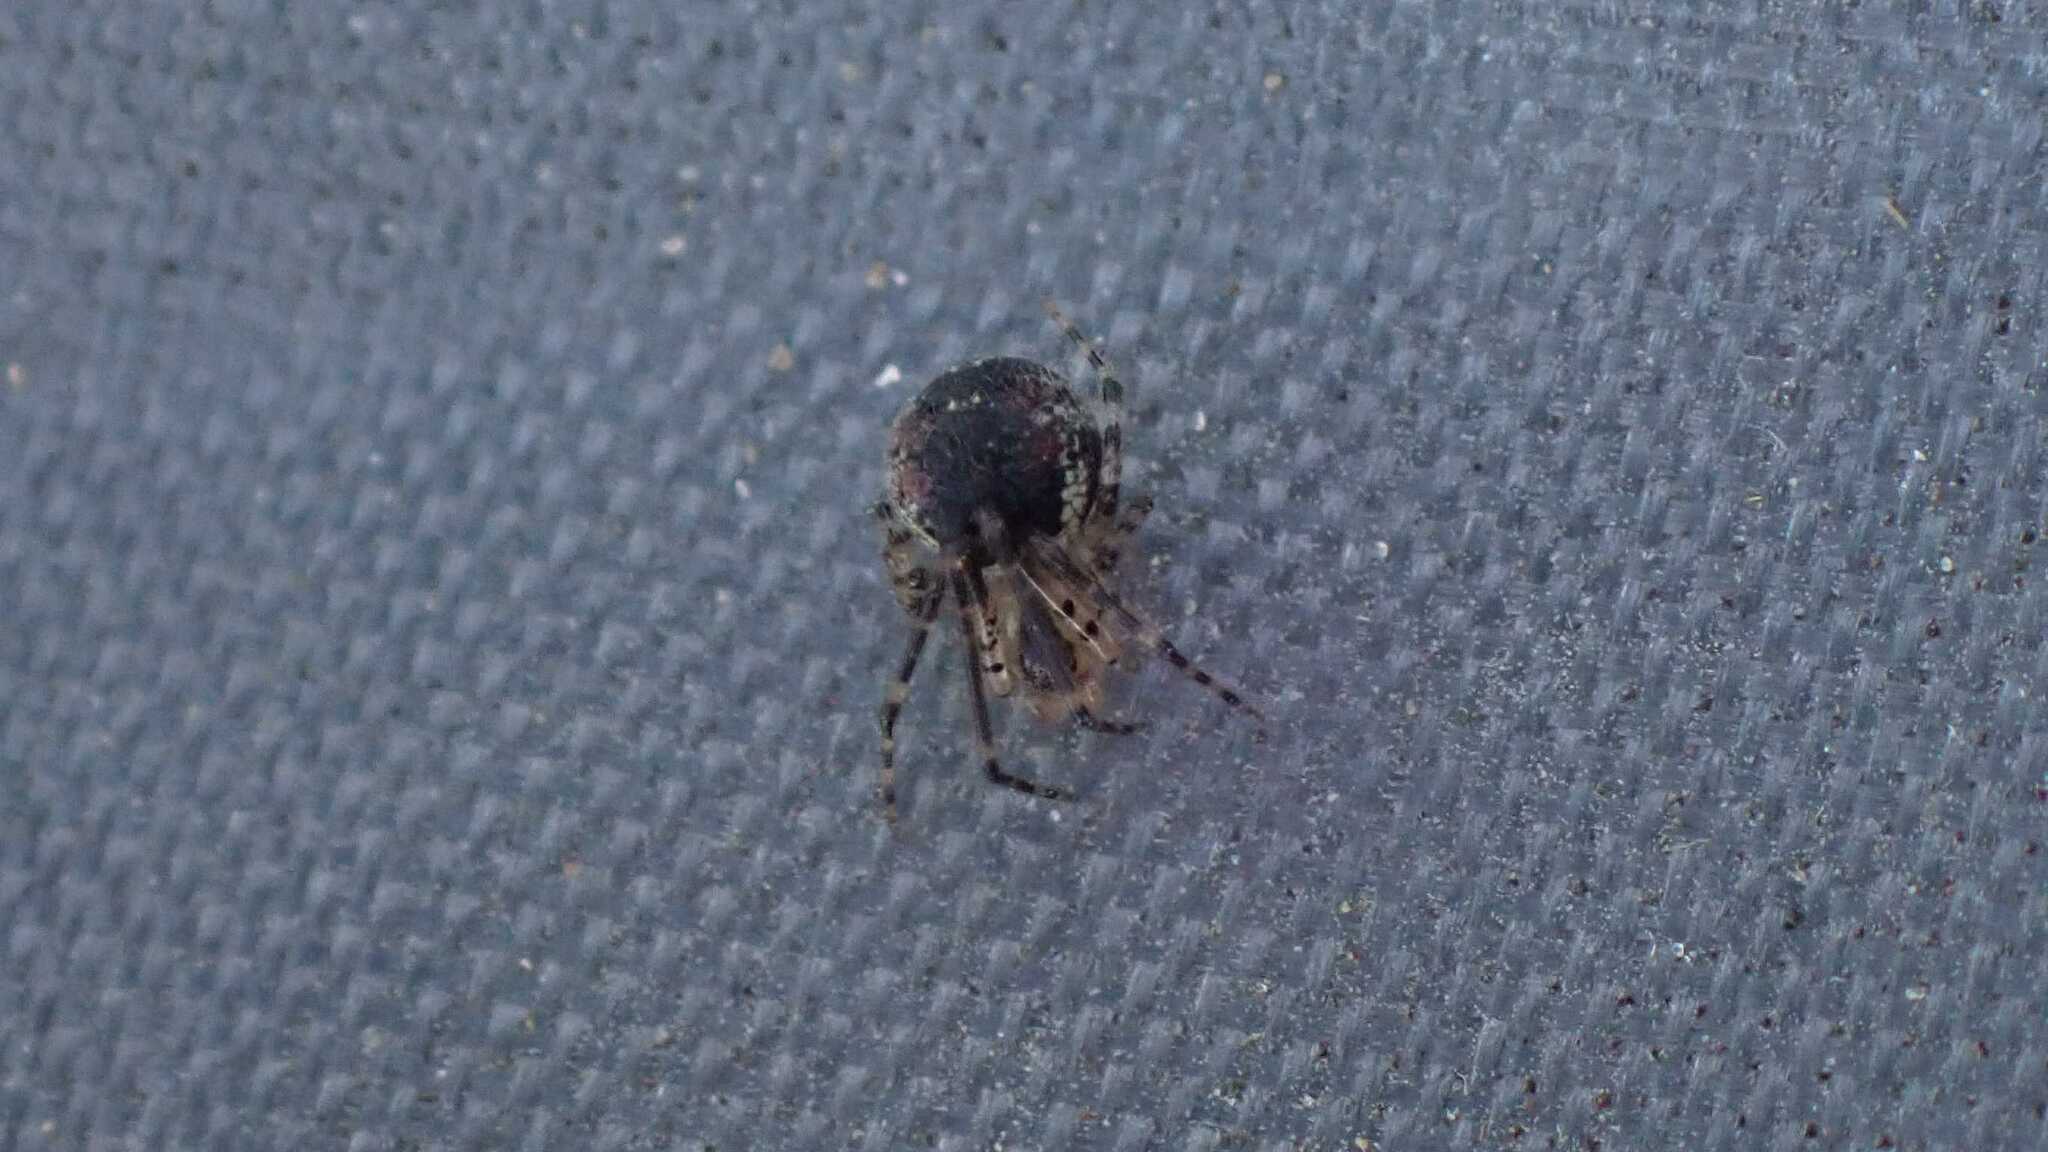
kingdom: Animalia
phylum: Arthropoda
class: Arachnida
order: Araneae
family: Theridiidae
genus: Platnickina
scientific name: Platnickina tincta
